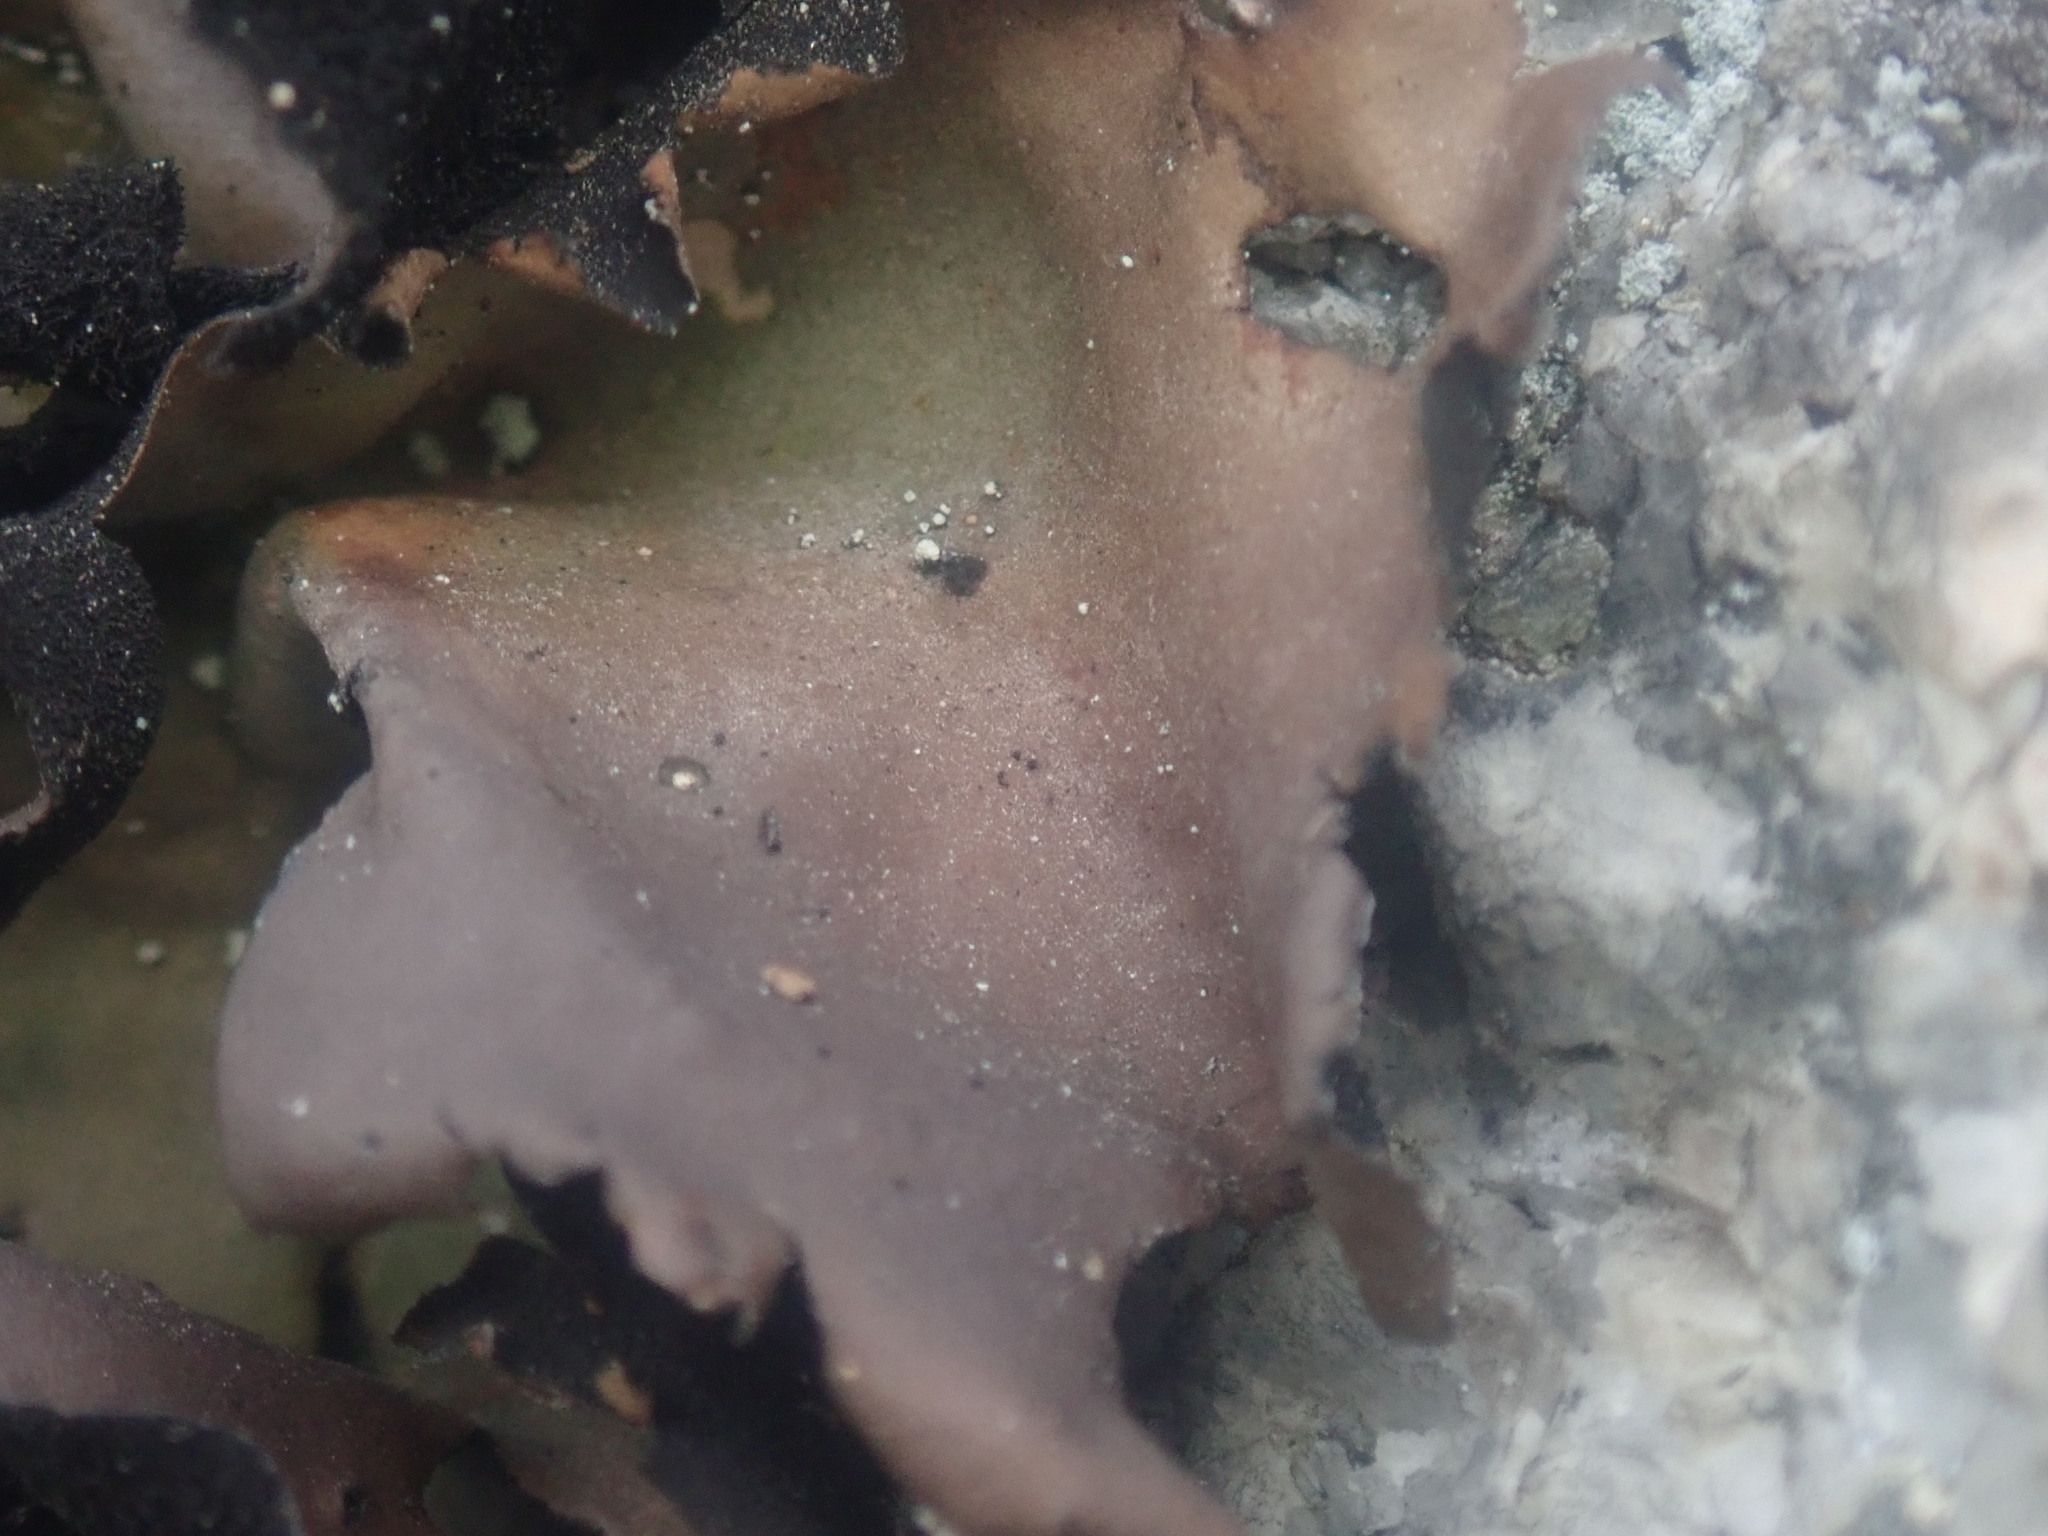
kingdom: Fungi
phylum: Ascomycota
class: Lecanoromycetes
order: Umbilicariales
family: Umbilicariaceae
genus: Umbilicaria
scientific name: Umbilicaria mammulata
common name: Smooth rock tripe
